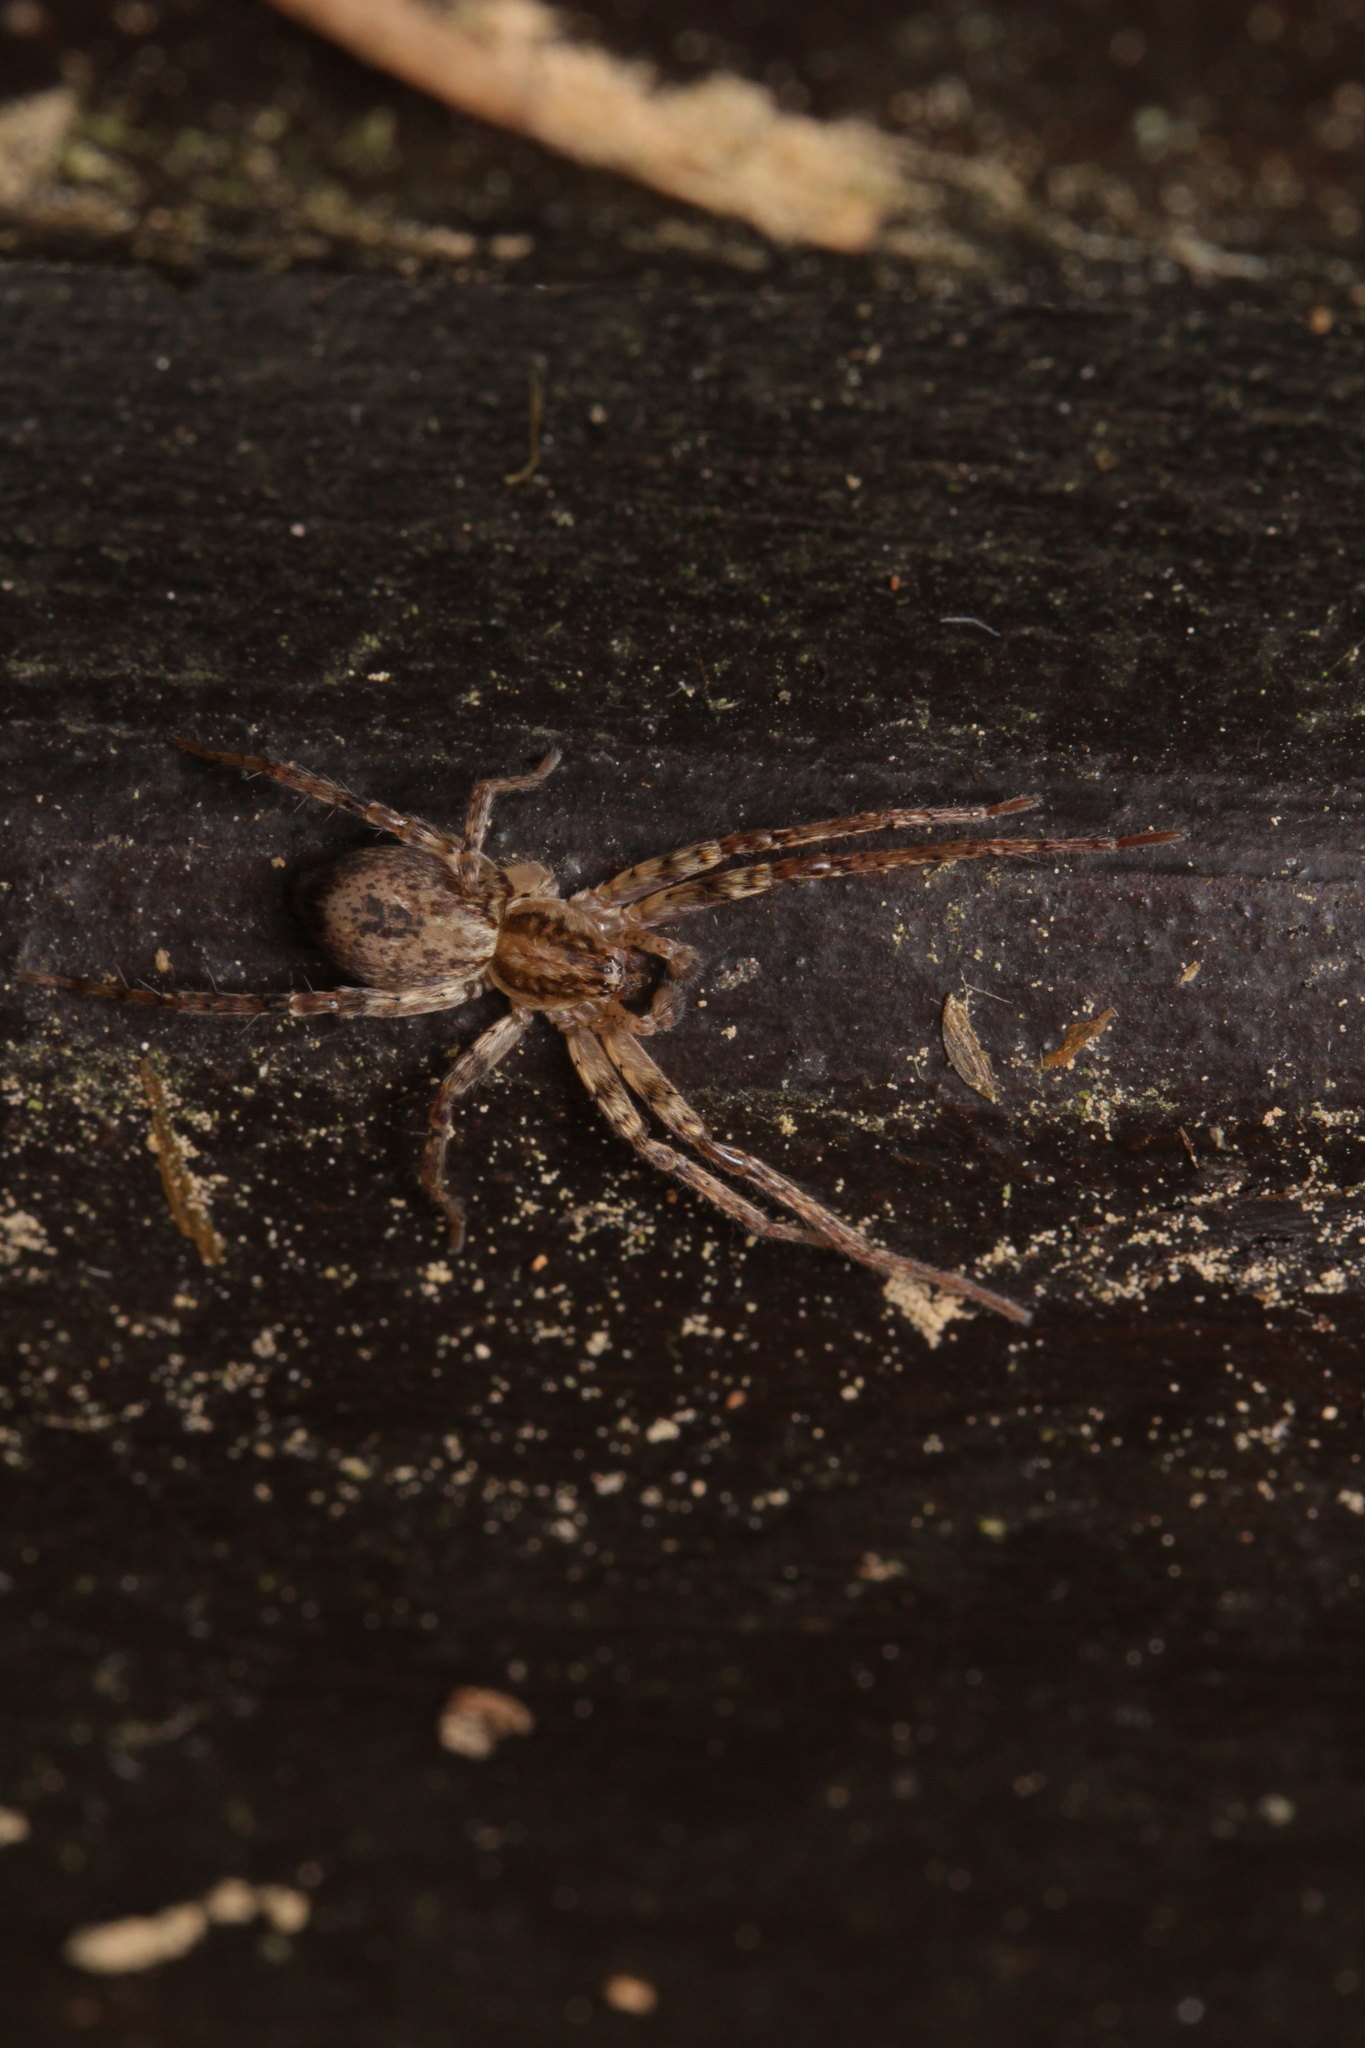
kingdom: Animalia
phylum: Arthropoda
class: Arachnida
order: Araneae
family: Anyphaenidae
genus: Anyphaena
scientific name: Anyphaena accentuata
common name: Buzzing spider
